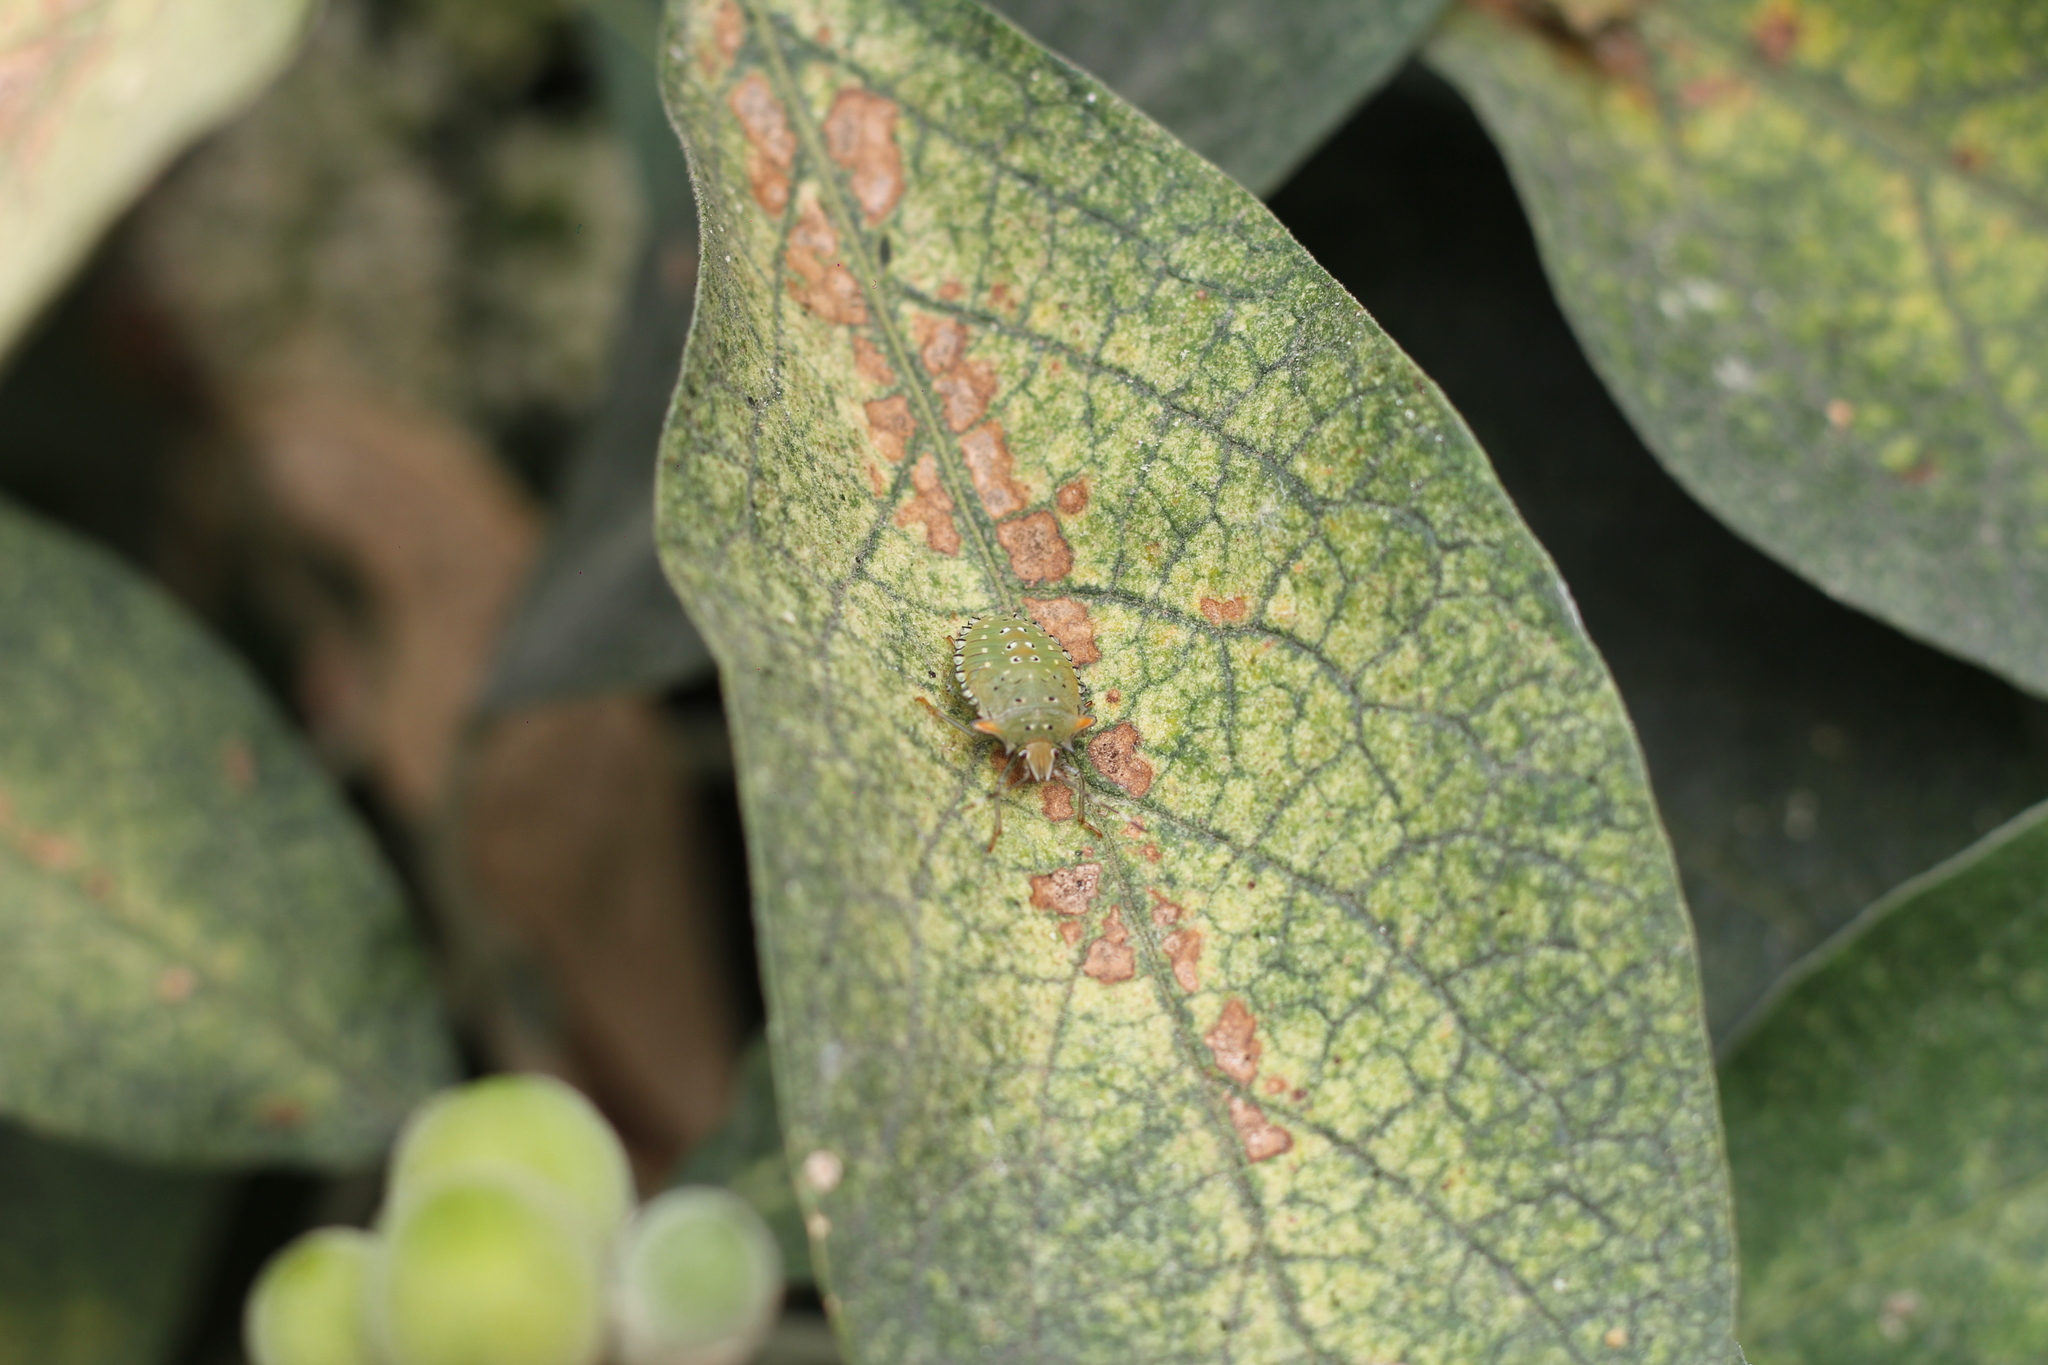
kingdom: Animalia
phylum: Arthropoda
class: Insecta
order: Hemiptera
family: Pentatomidae
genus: Arvelius
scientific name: Arvelius albopunctatus
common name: Tomato stink bug
